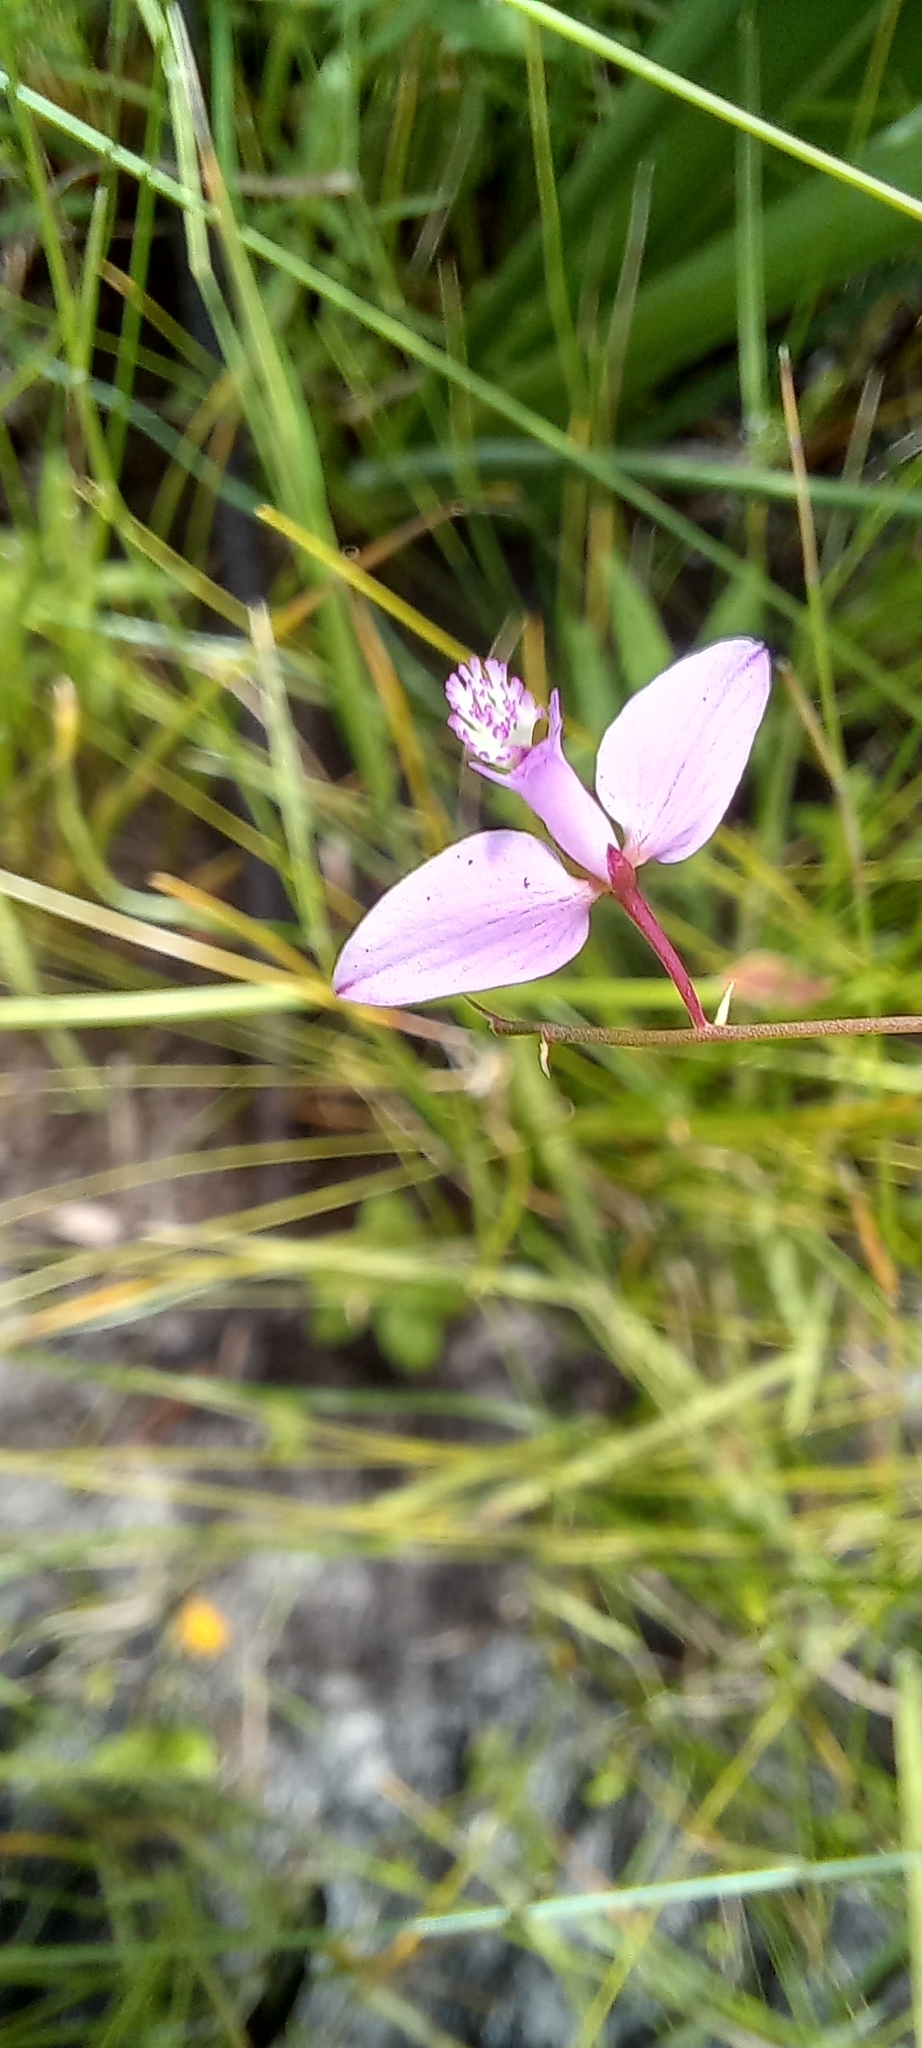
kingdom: Plantae
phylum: Tracheophyta
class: Magnoliopsida
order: Fabales
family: Polygalaceae
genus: Polygala
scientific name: Polygala garcini
